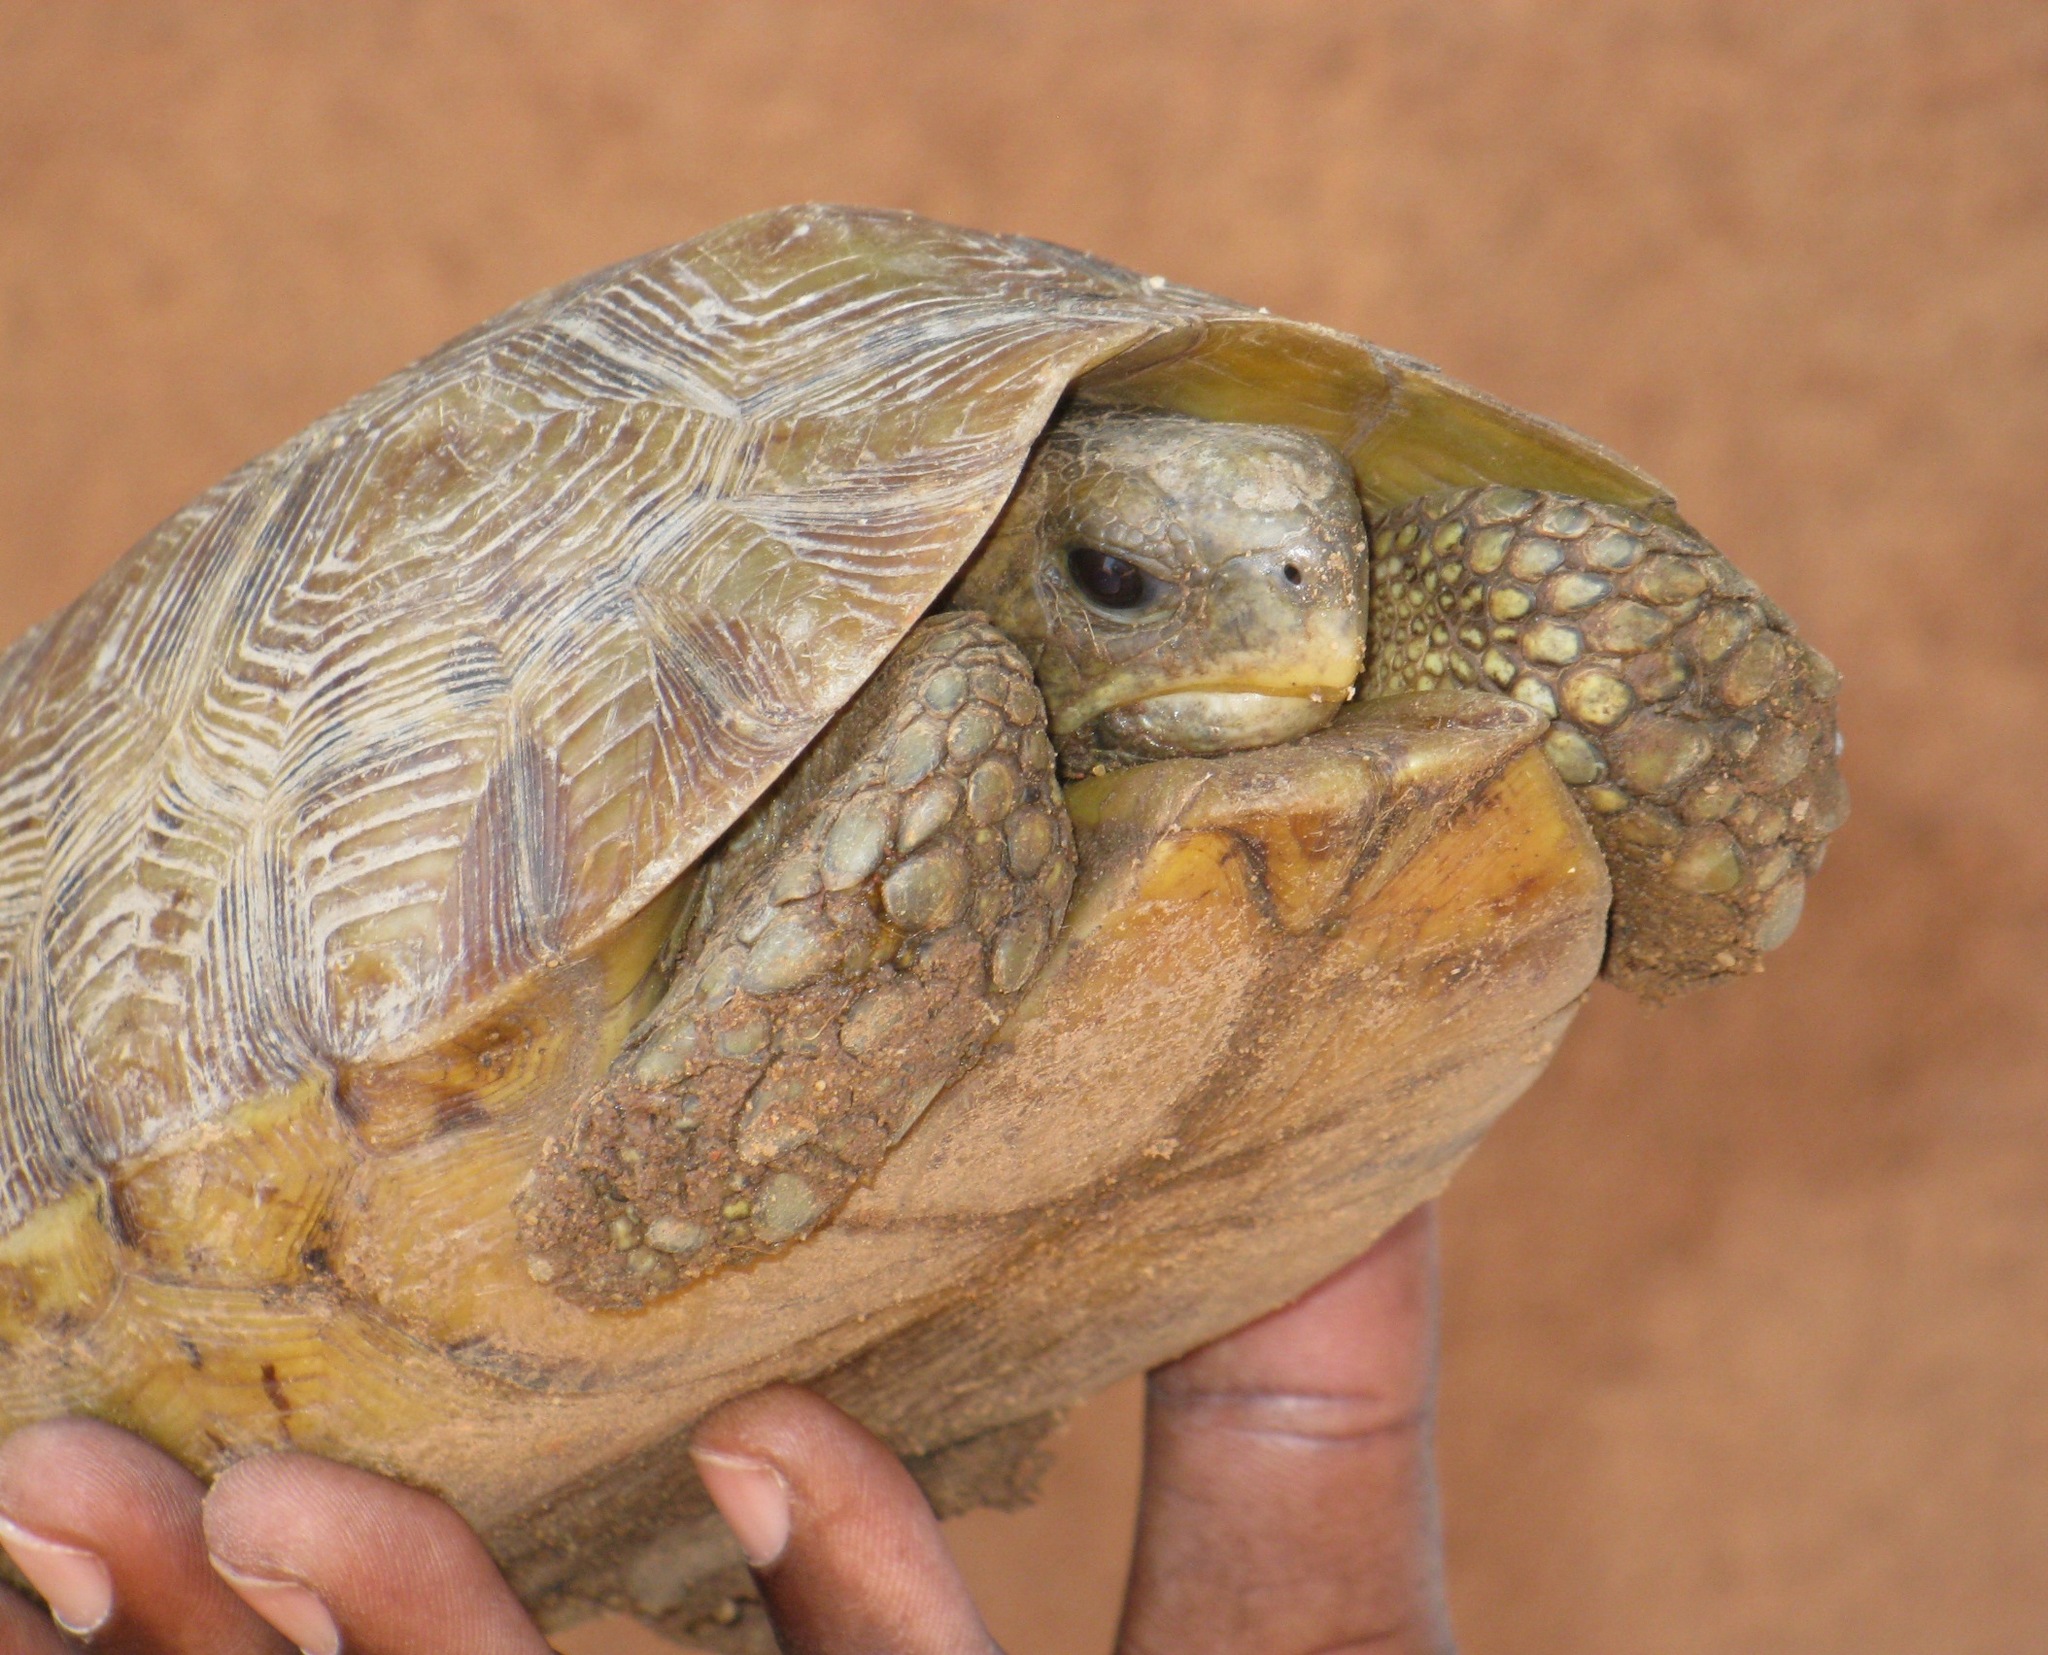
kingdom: Animalia
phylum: Chordata
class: Testudines
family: Testudinidae
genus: Kinixys
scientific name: Kinixys nogueyi
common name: Western hinge-back tortoise
